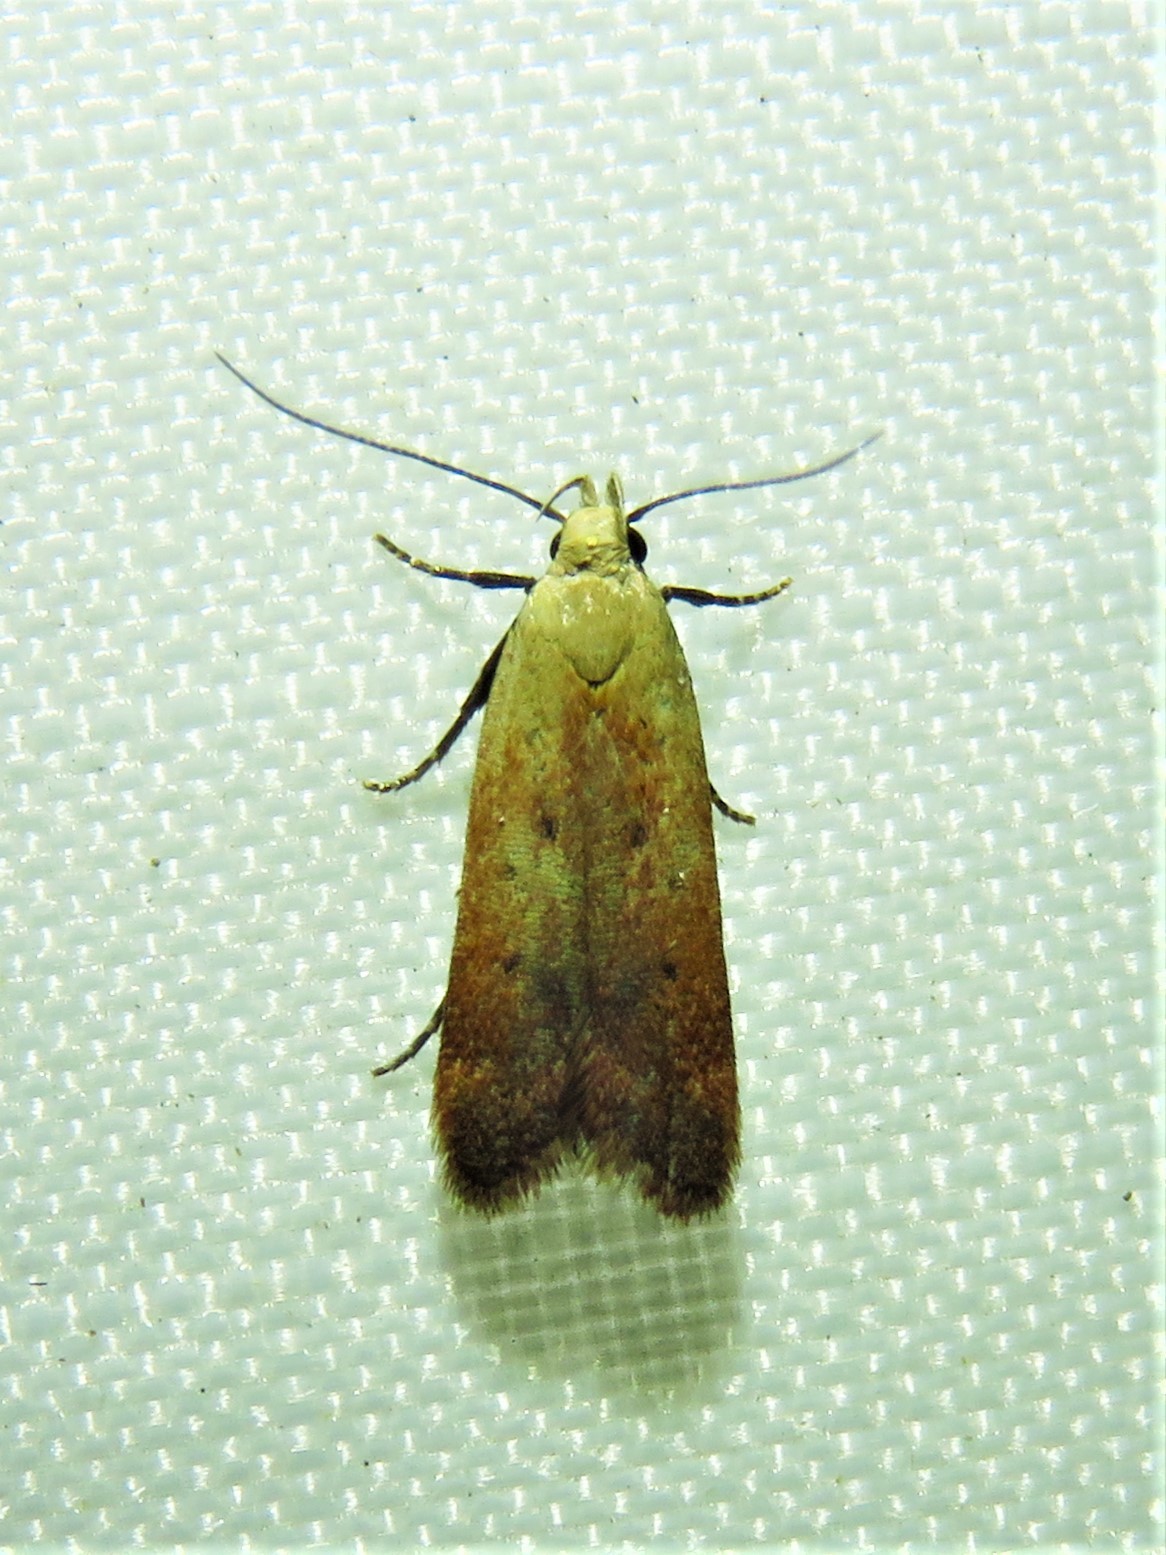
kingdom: Animalia
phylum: Arthropoda
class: Insecta
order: Lepidoptera
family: Gelechiidae
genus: Anacampsis
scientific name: Anacampsis fullonella
